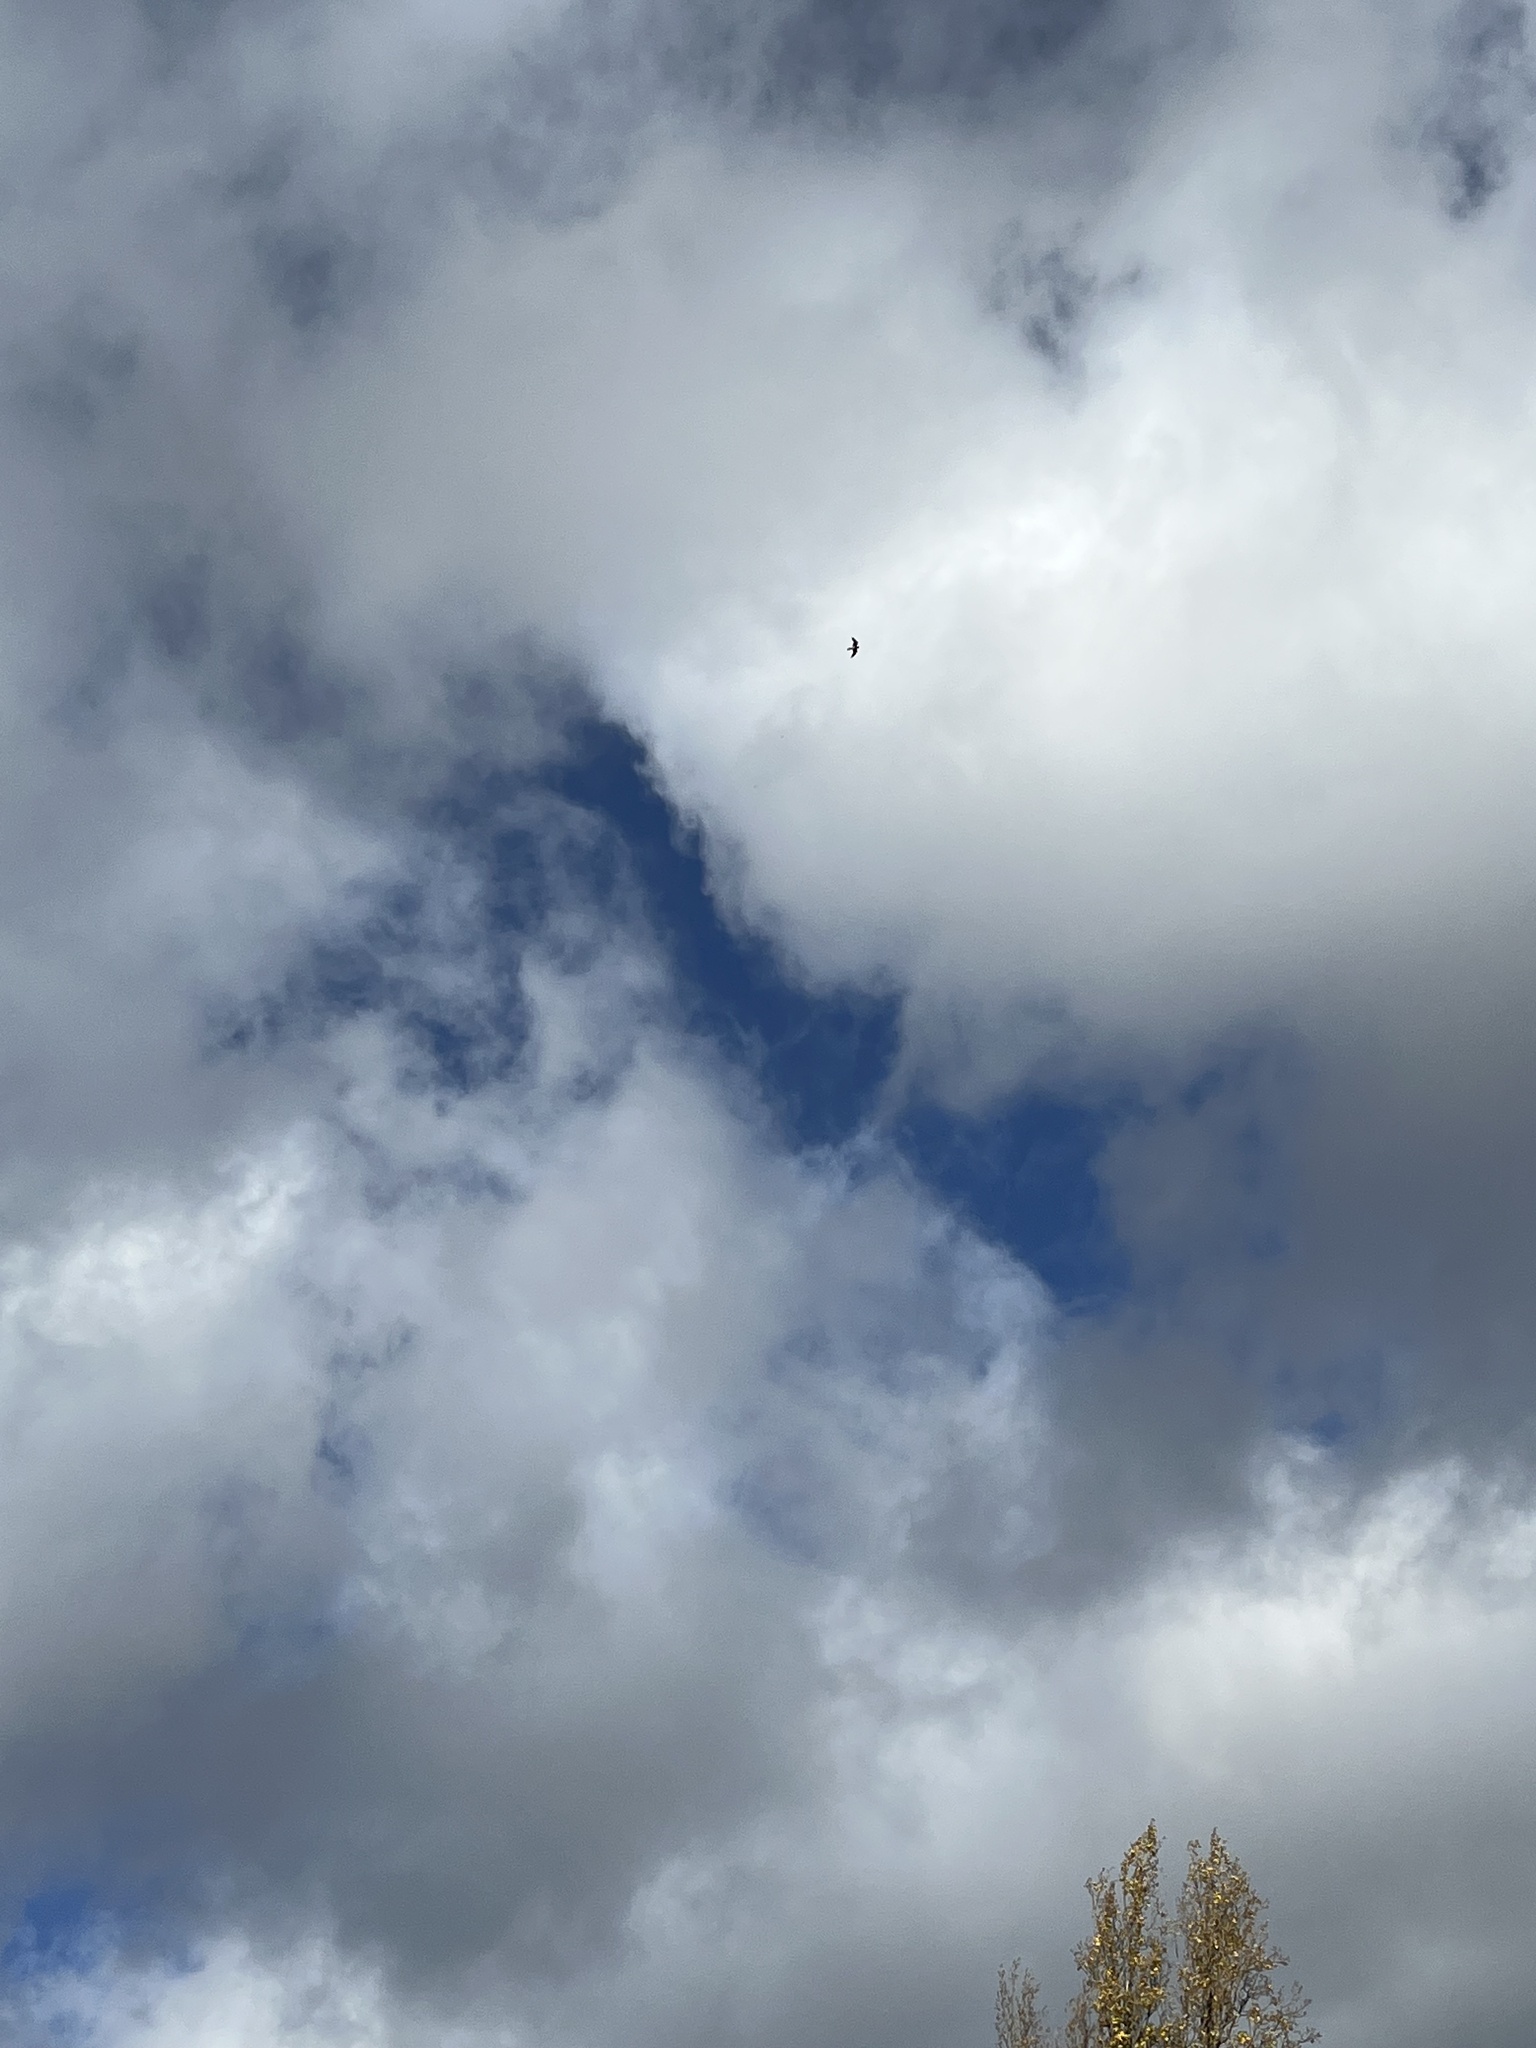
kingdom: Animalia
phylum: Chordata
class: Aves
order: Falconiformes
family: Falconidae
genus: Falco
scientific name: Falco peregrinus
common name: Peregrine falcon
